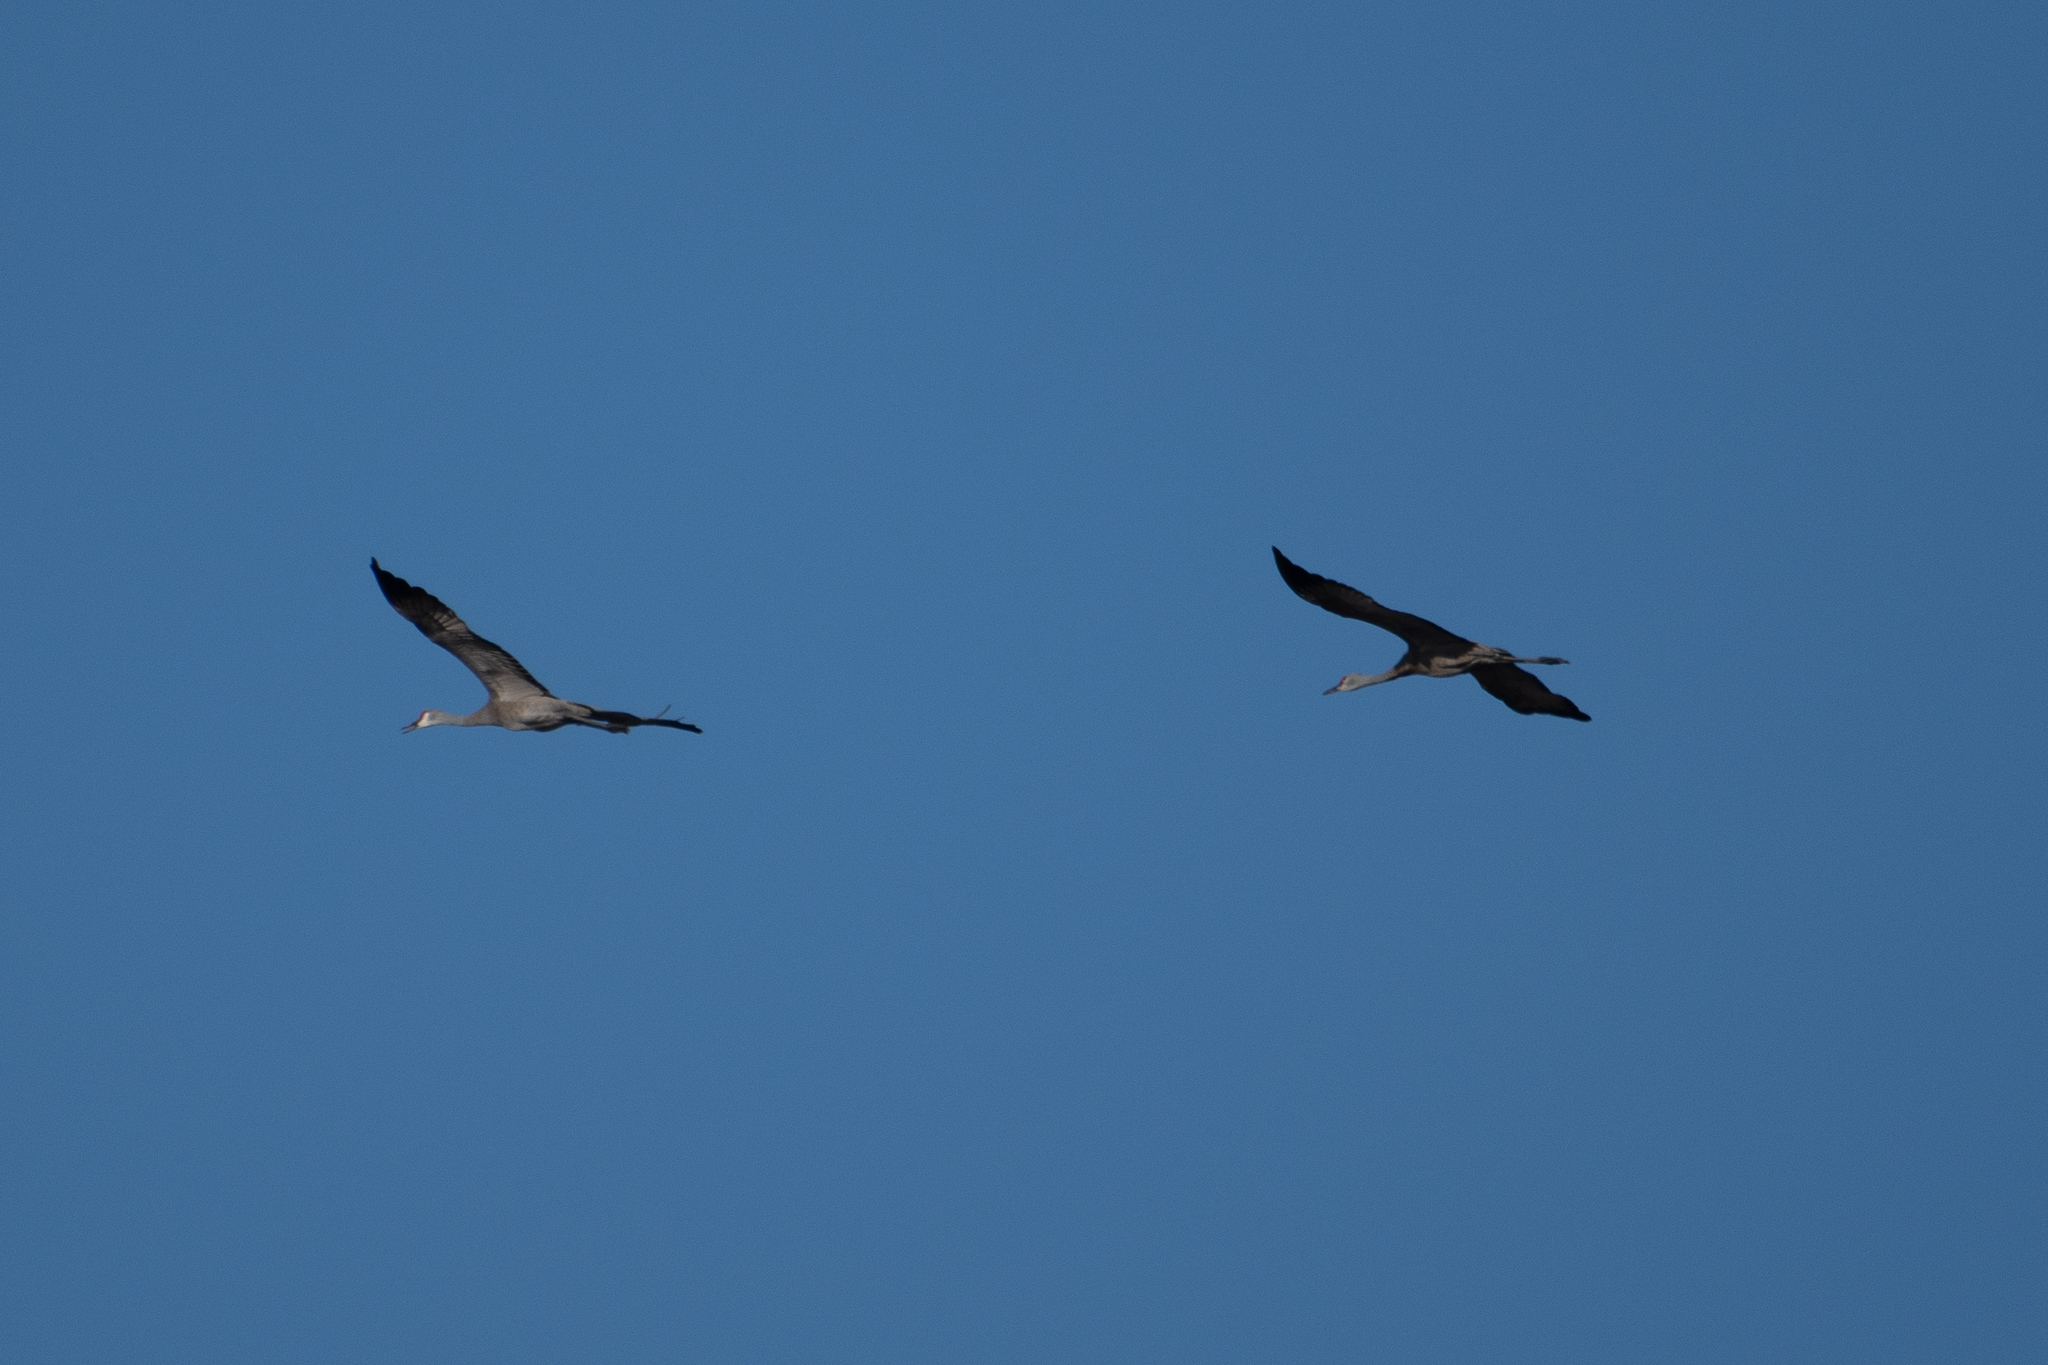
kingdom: Animalia
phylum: Chordata
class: Aves
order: Gruiformes
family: Gruidae
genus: Grus
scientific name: Grus canadensis
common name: Sandhill crane
